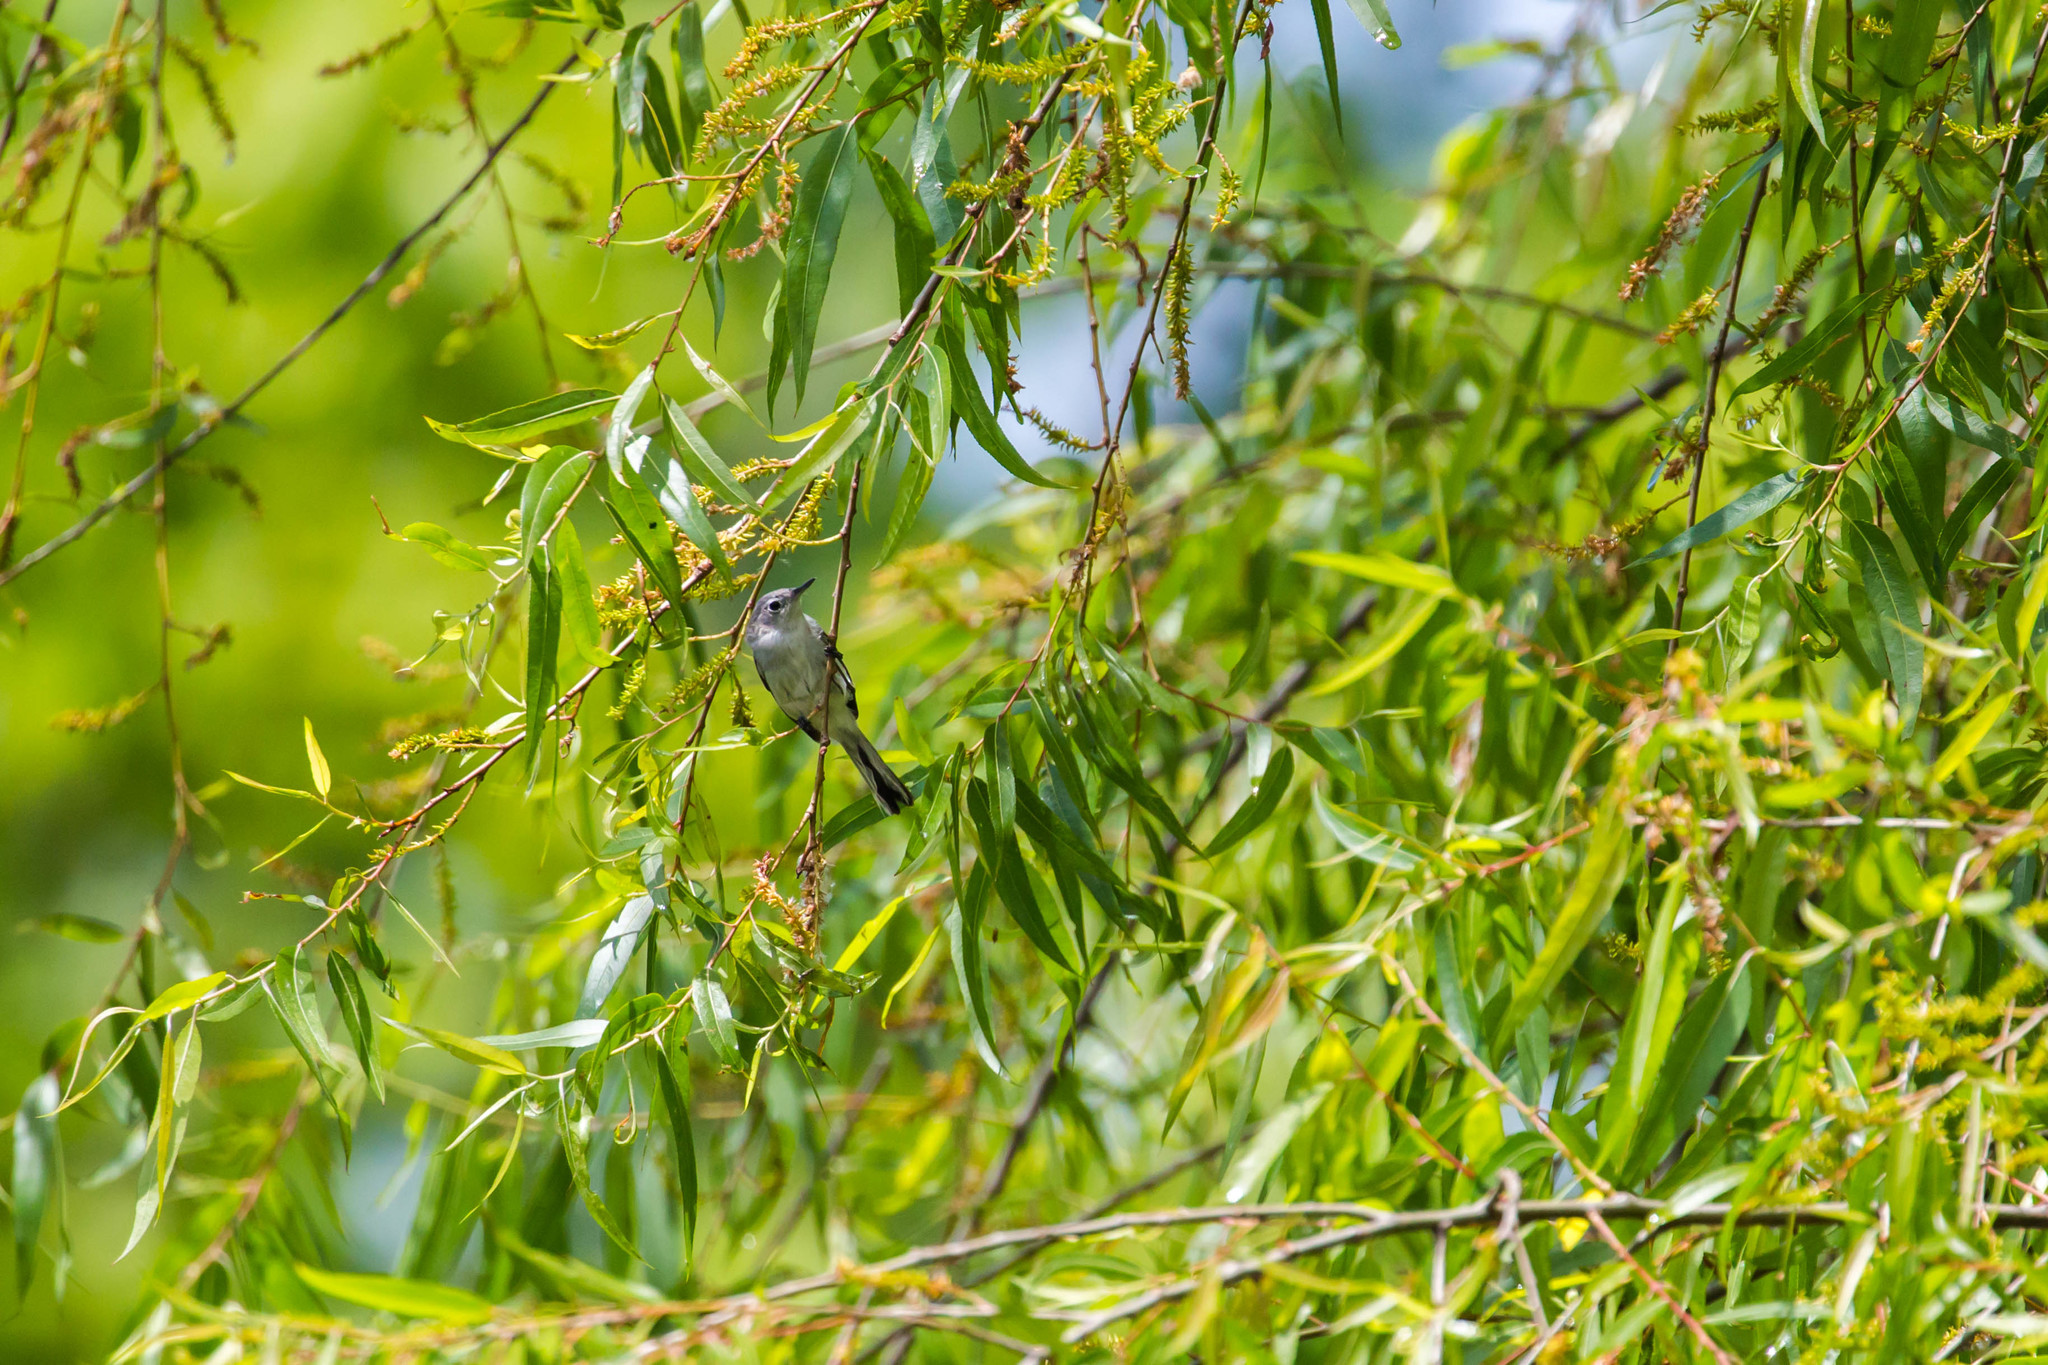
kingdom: Animalia
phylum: Chordata
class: Aves
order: Passeriformes
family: Polioptilidae
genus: Polioptila
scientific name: Polioptila caerulea
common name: Blue-gray gnatcatcher
